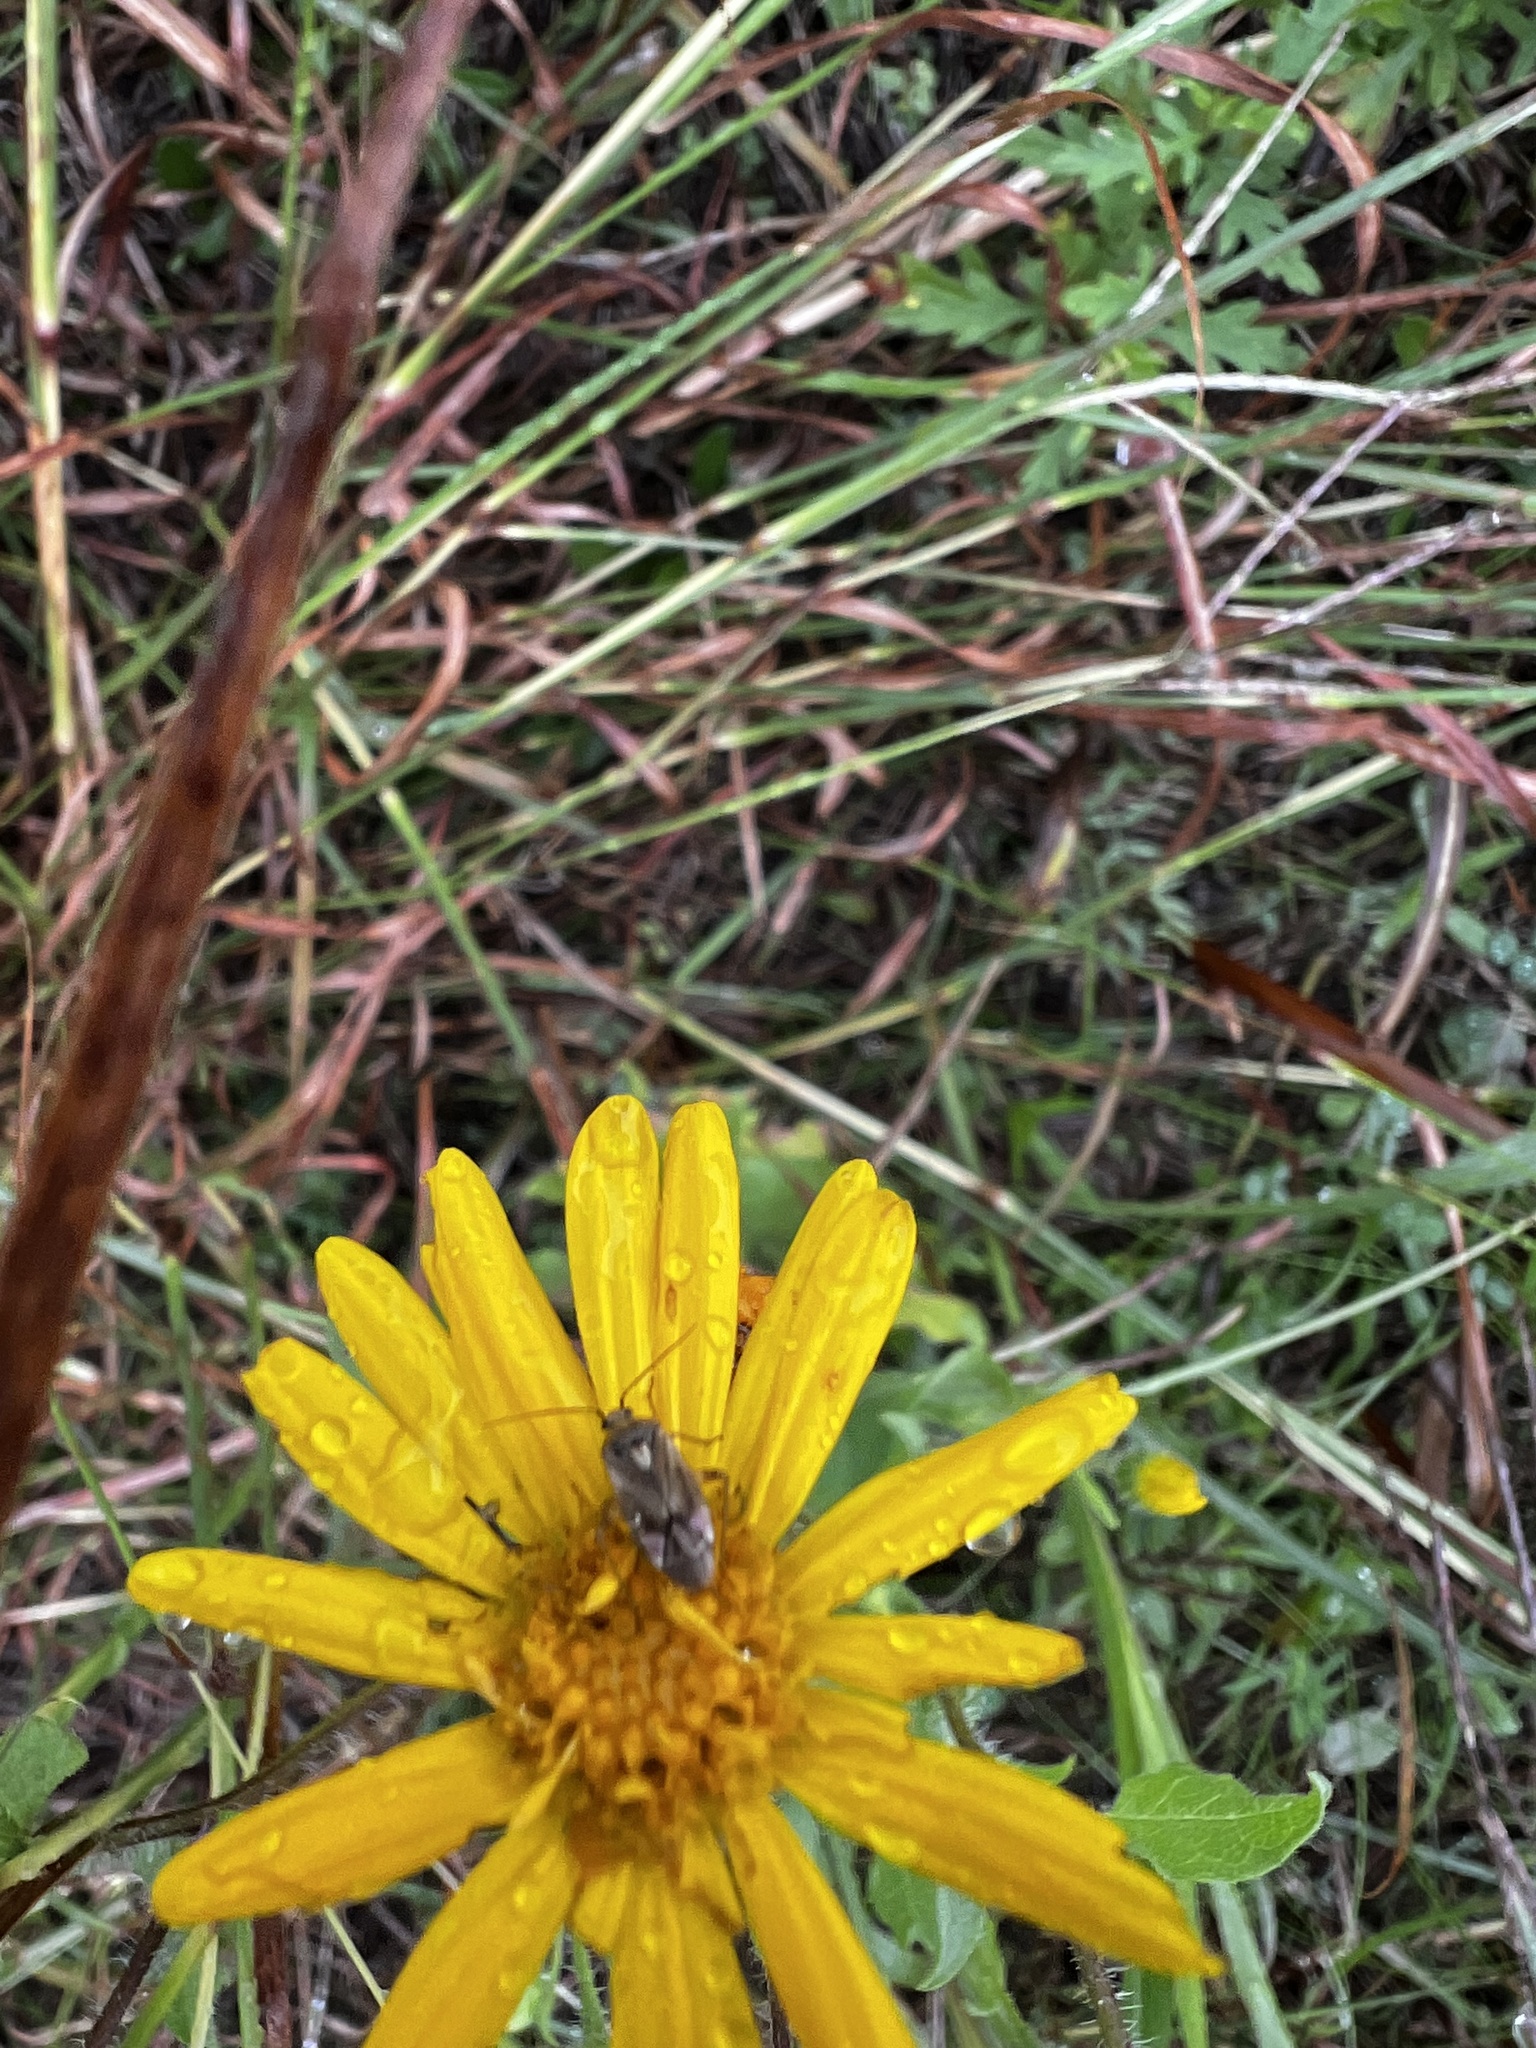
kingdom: Animalia
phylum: Arthropoda
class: Insecta
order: Hemiptera
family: Miridae
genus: Polymerus
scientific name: Polymerus basalis
